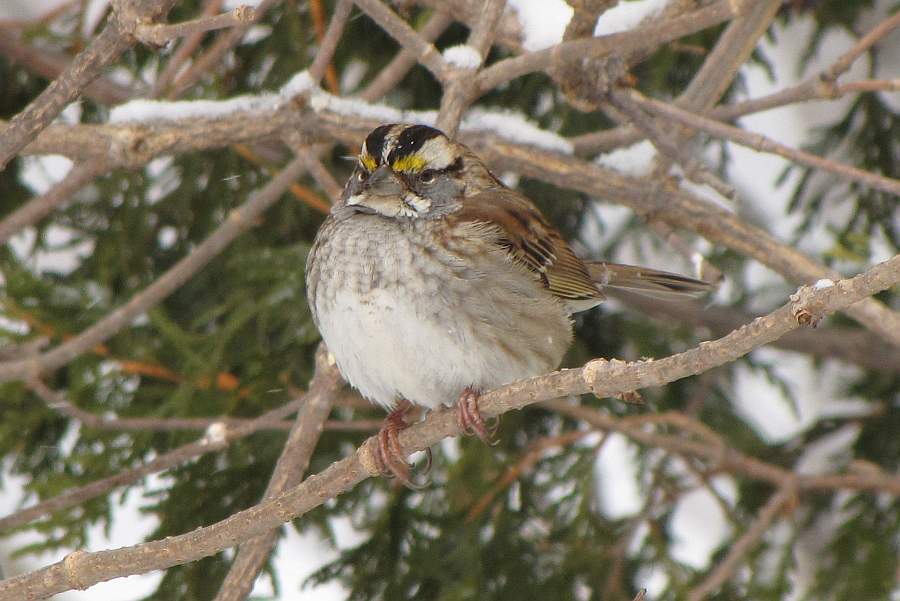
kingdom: Animalia
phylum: Chordata
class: Aves
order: Passeriformes
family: Passerellidae
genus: Zonotrichia
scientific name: Zonotrichia albicollis
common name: White-throated sparrow
